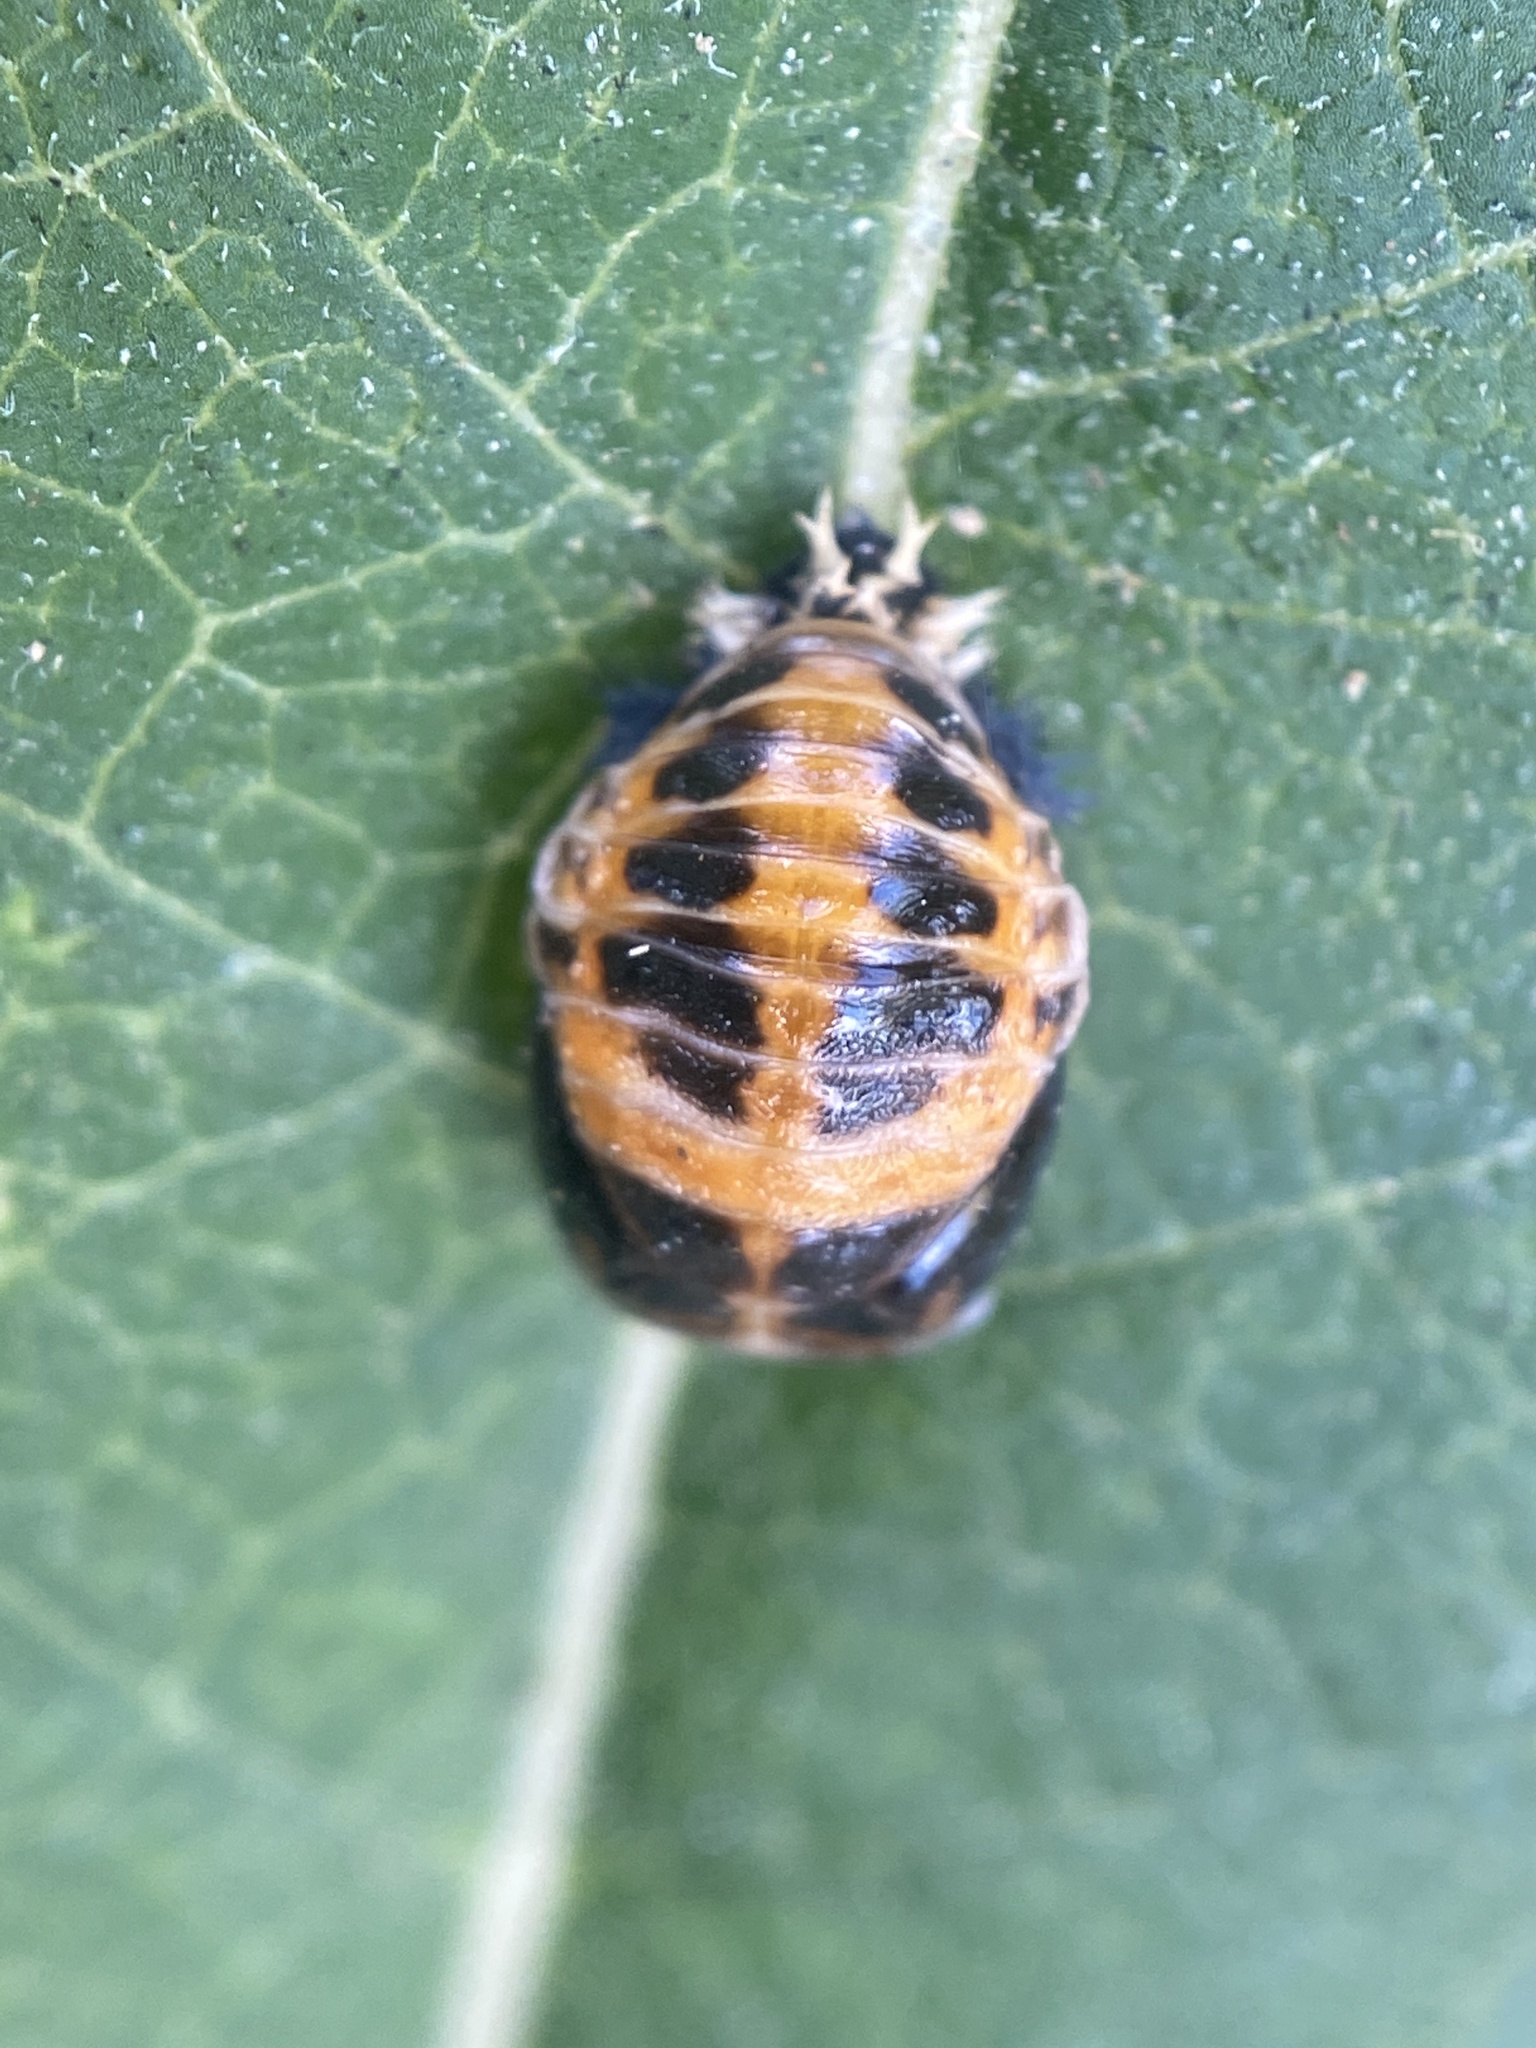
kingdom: Animalia
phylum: Arthropoda
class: Insecta
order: Coleoptera
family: Coccinellidae
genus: Harmonia
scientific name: Harmonia axyridis
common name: Harlequin ladybird
